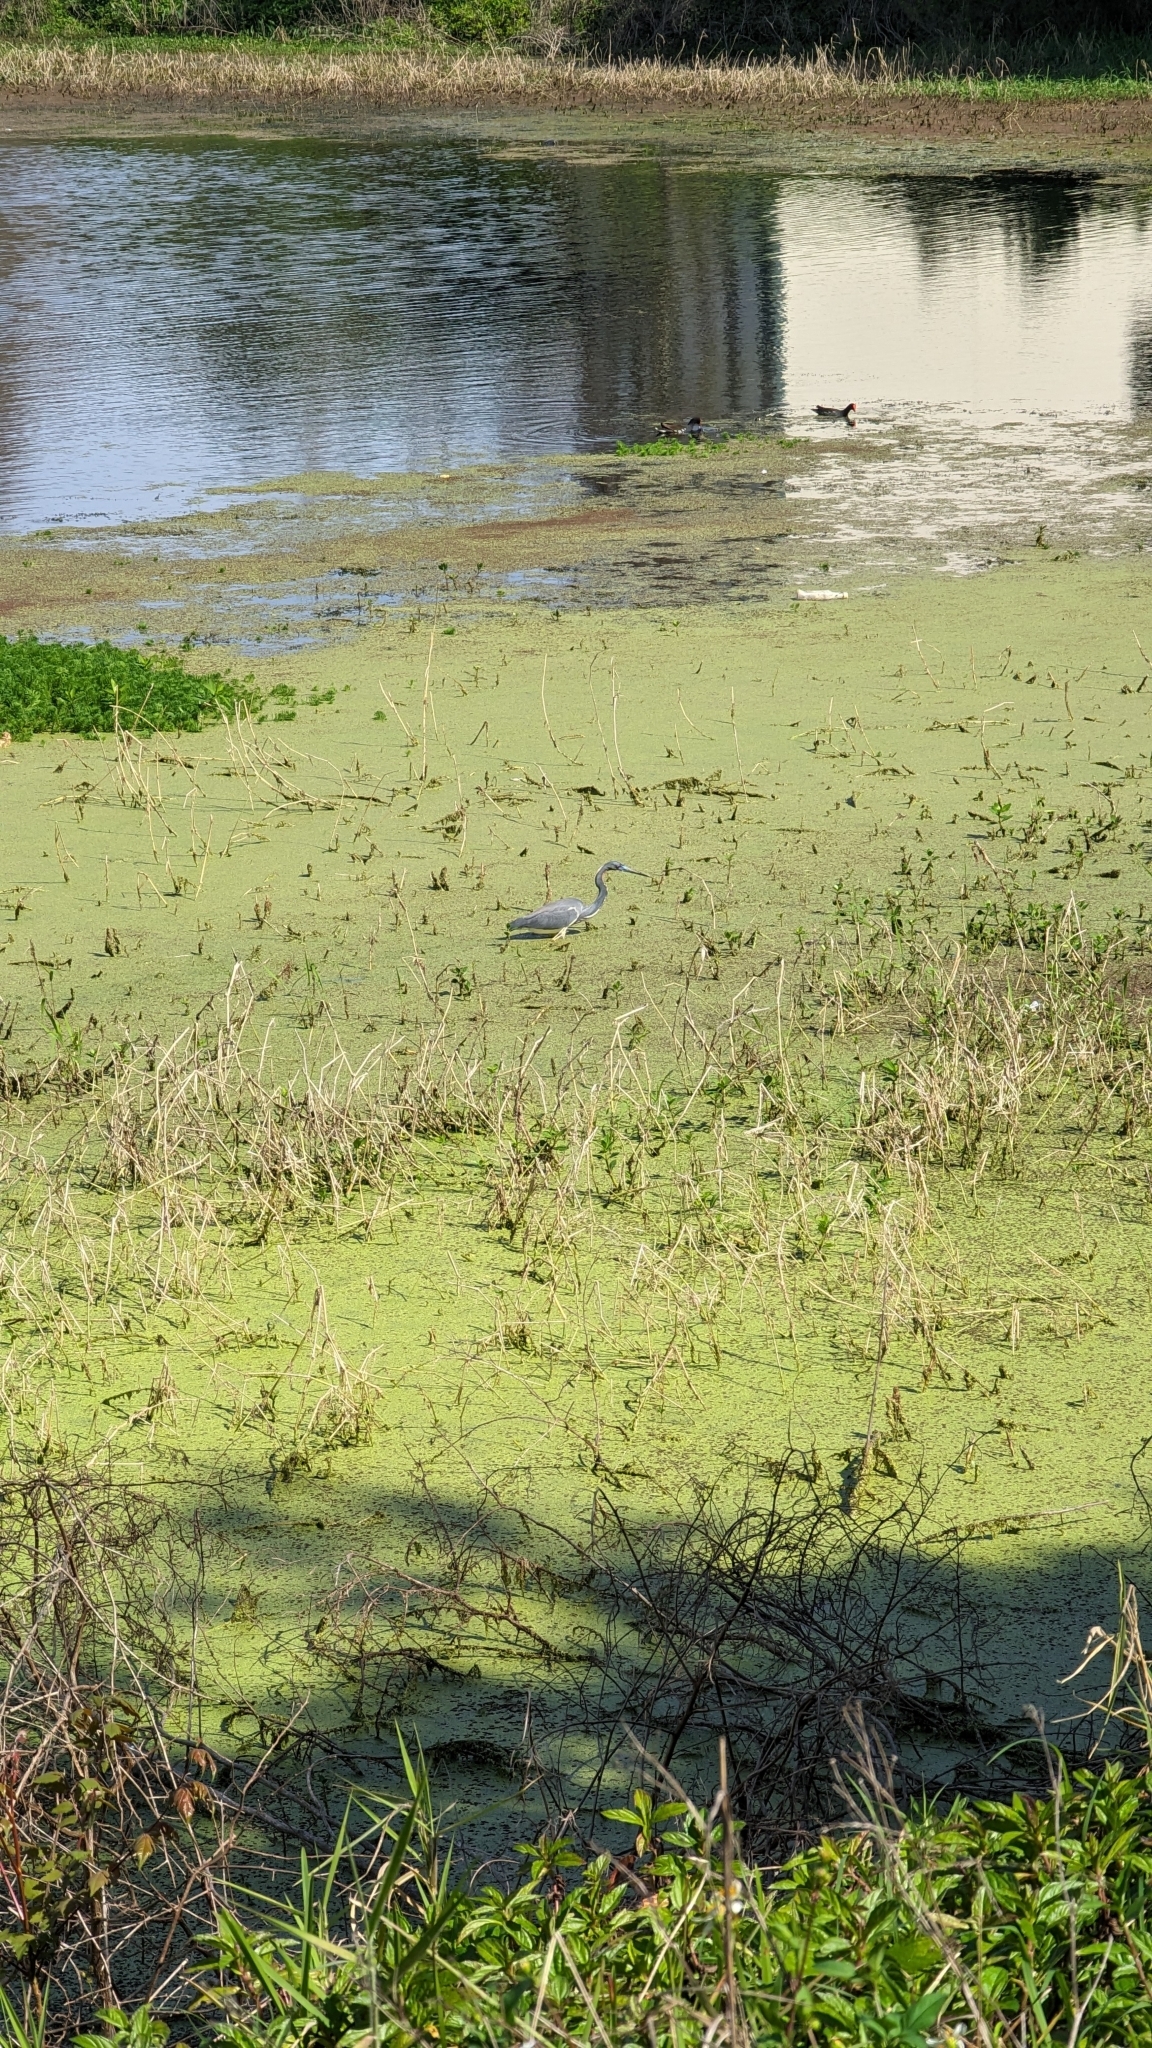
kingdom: Animalia
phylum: Chordata
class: Aves
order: Pelecaniformes
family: Ardeidae
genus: Egretta
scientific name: Egretta tricolor
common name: Tricolored heron
